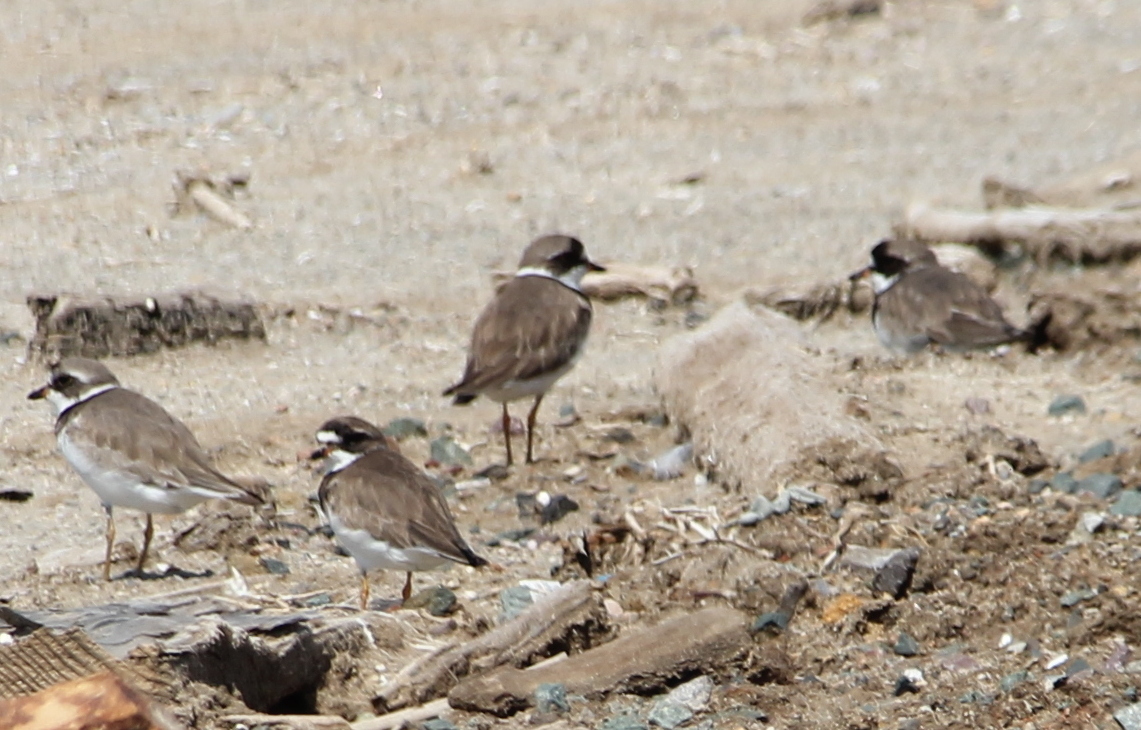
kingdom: Animalia
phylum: Chordata
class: Aves
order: Charadriiformes
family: Charadriidae
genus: Charadrius
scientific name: Charadrius semipalmatus
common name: Semipalmated plover
